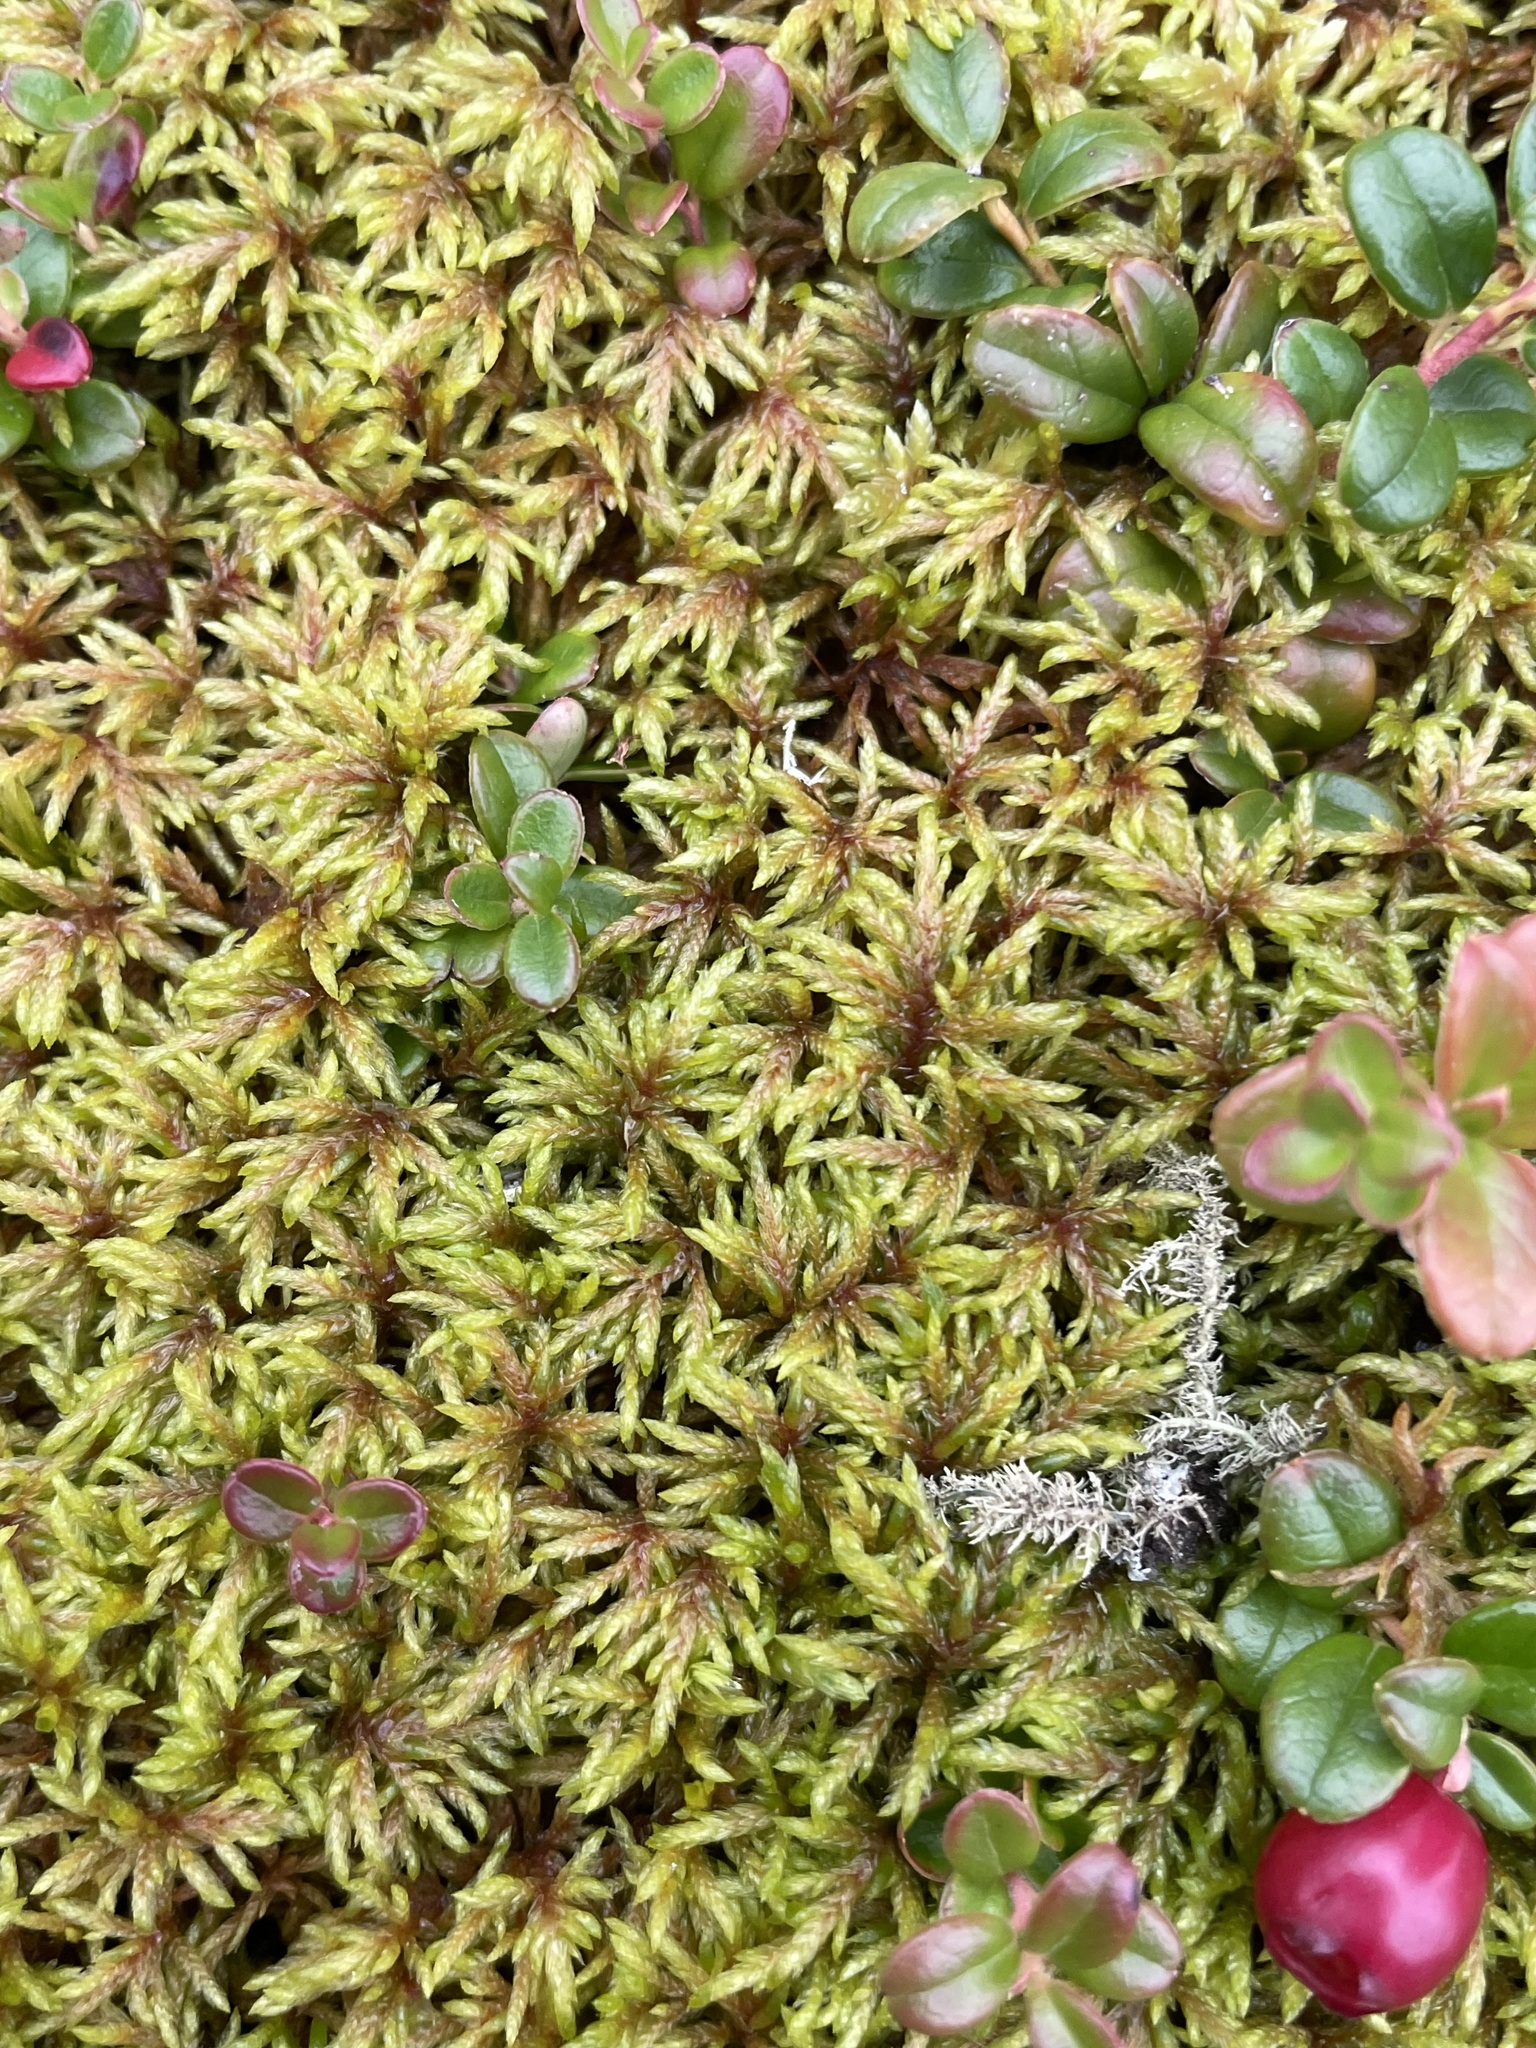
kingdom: Plantae
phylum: Bryophyta
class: Bryopsida
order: Hypnales
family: Hylocomiaceae
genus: Hylocomium
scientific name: Hylocomium splendens
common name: Stairstep moss
